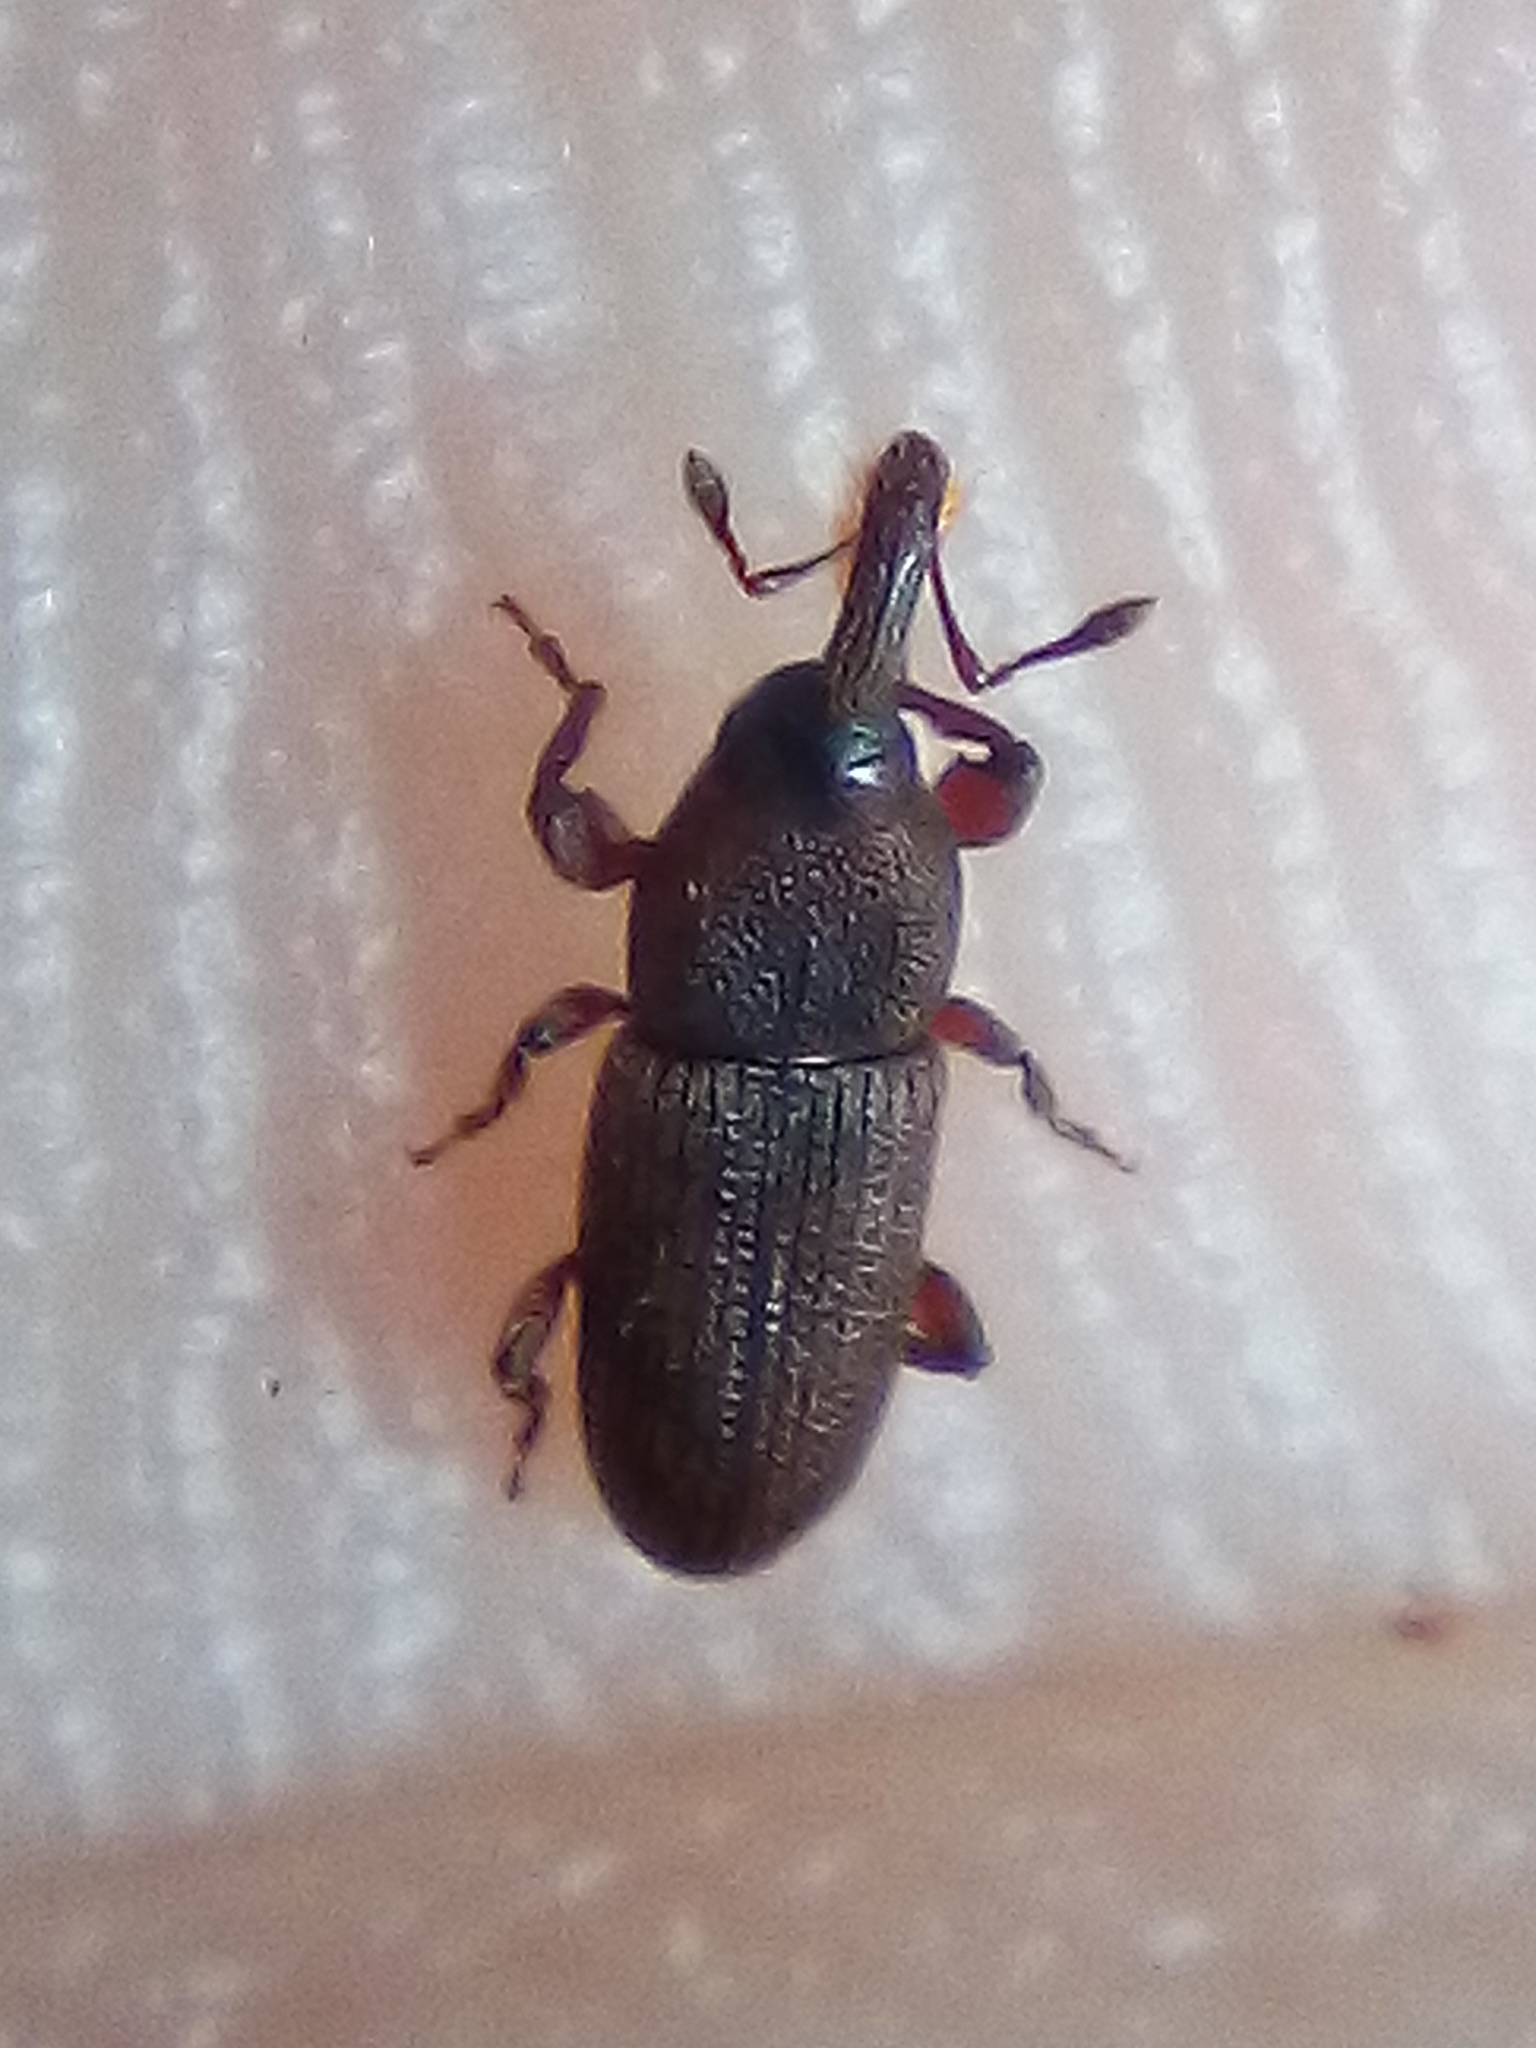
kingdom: Animalia
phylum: Arthropoda
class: Insecta
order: Coleoptera
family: Curculionidae
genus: Pogonorhinus
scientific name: Pogonorhinus opacus
